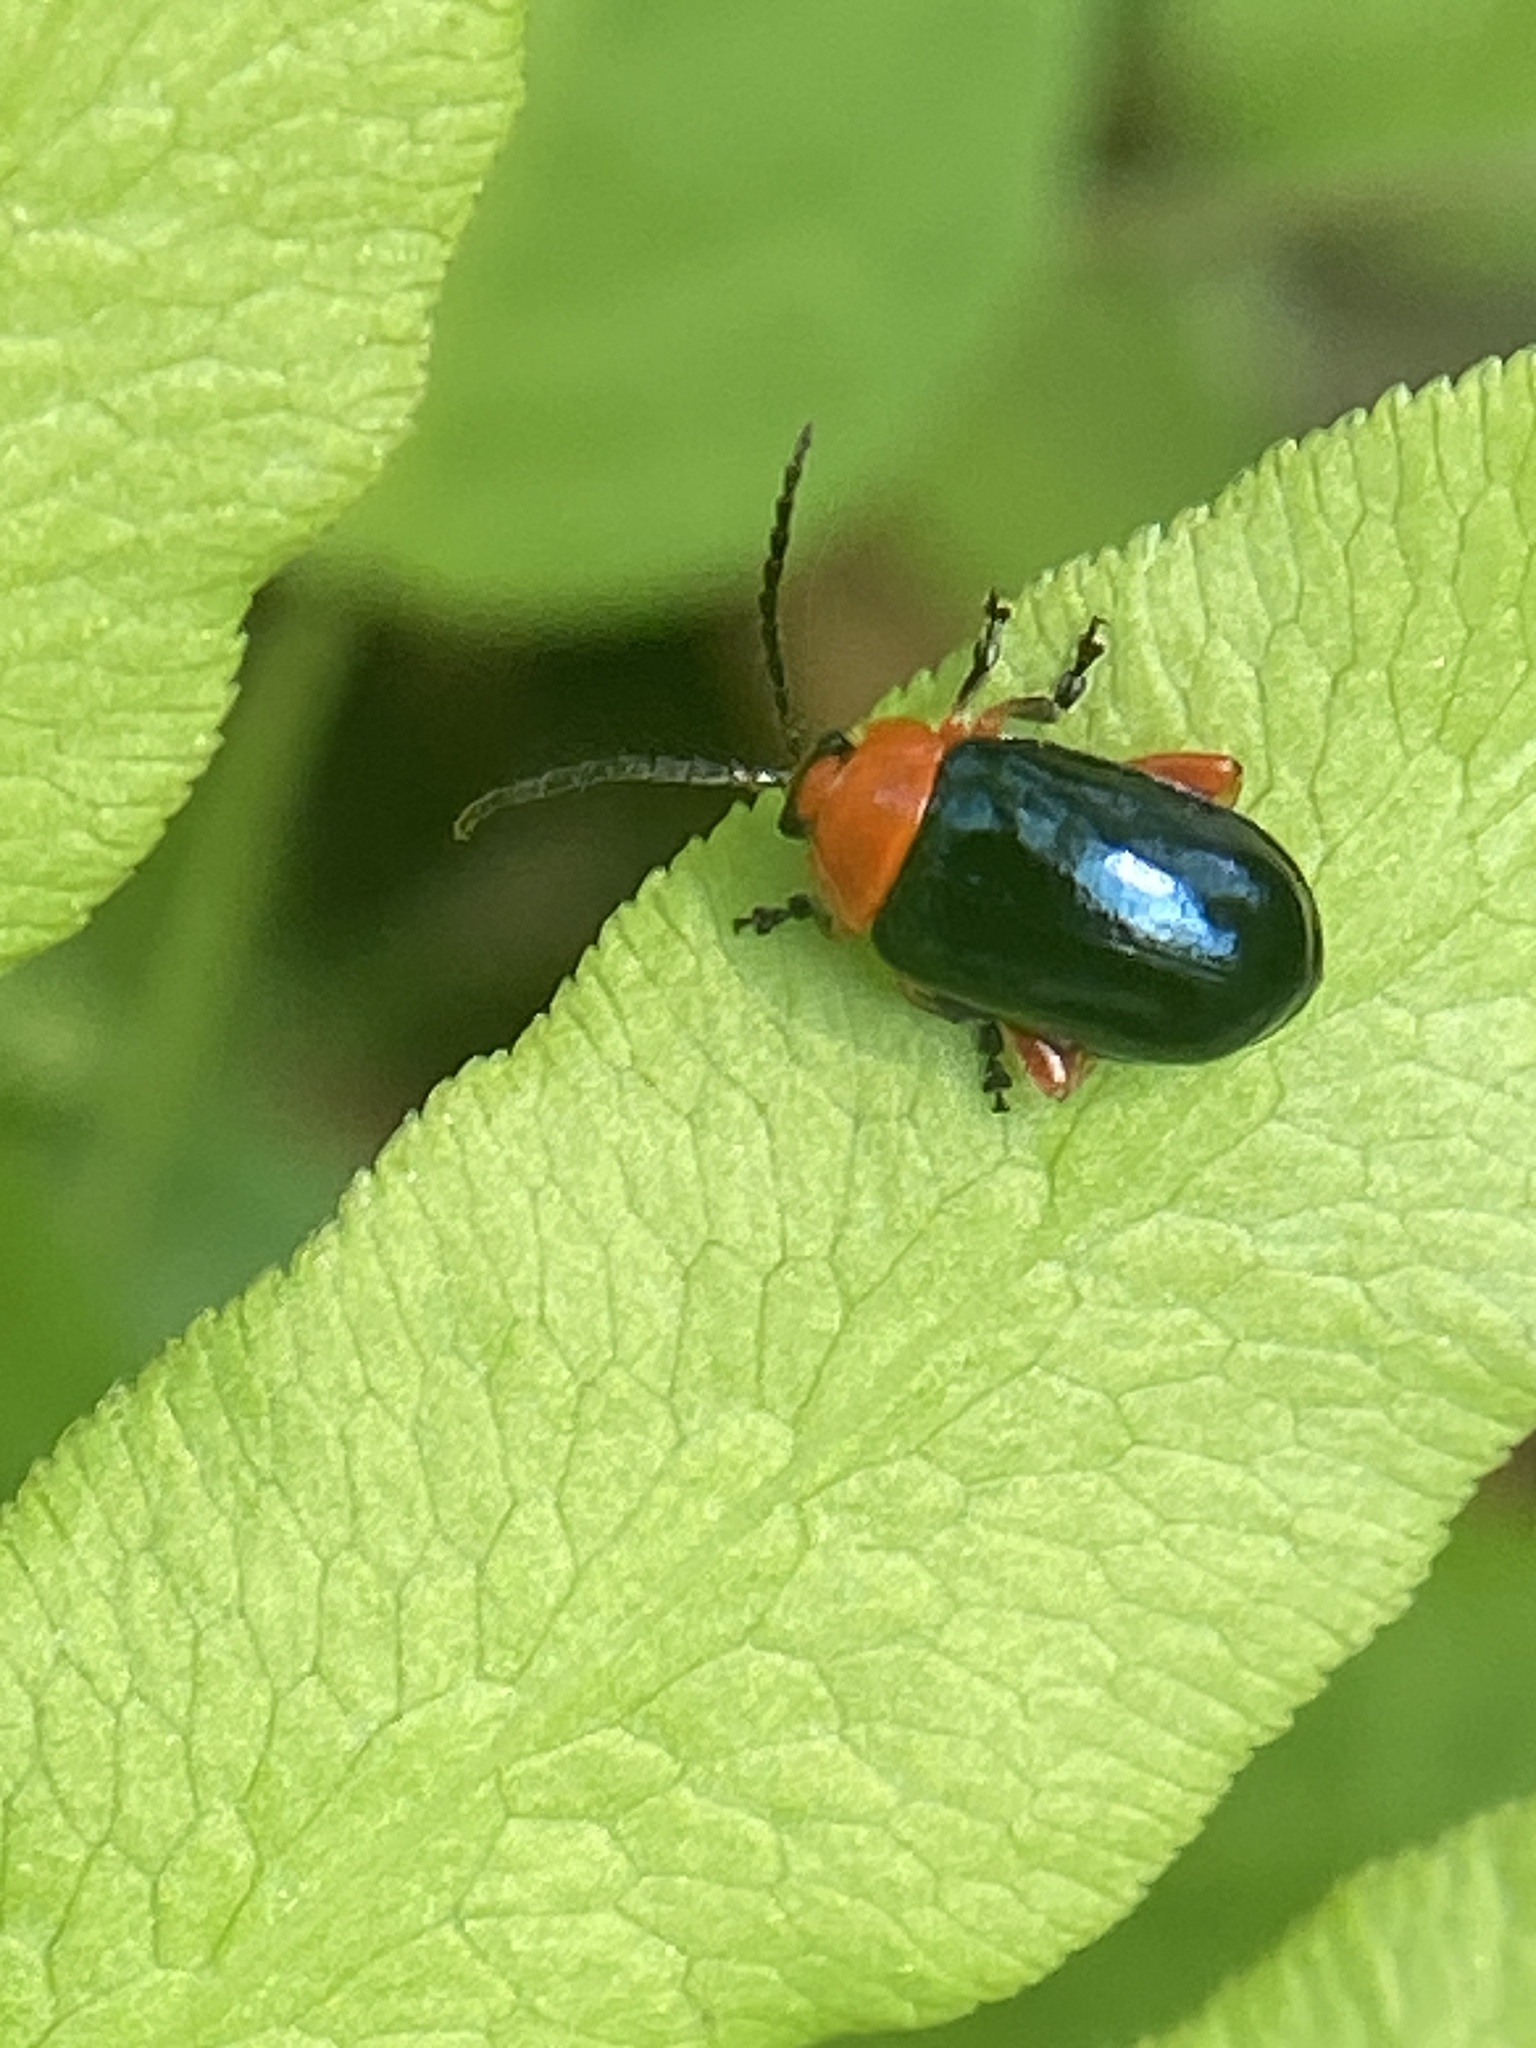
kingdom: Animalia
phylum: Arthropoda
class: Insecta
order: Coleoptera
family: Chrysomelidae
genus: Asphaera
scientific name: Asphaera lustrans
